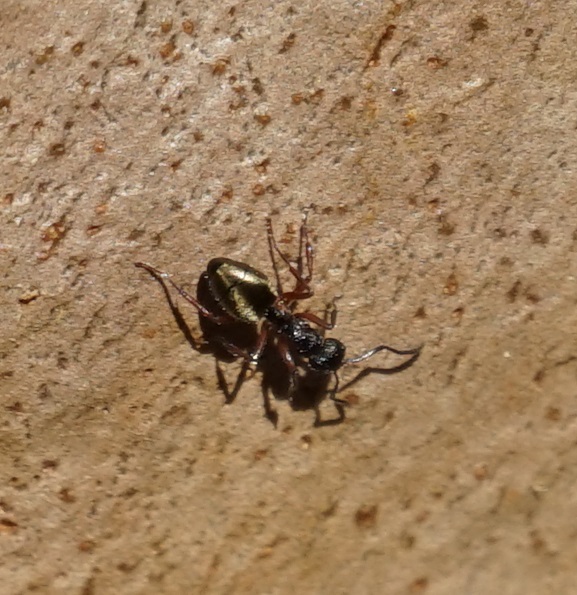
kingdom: Animalia
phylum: Arthropoda
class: Insecta
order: Hymenoptera
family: Formicidae
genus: Dolichoderus
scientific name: Dolichoderus scabridus
